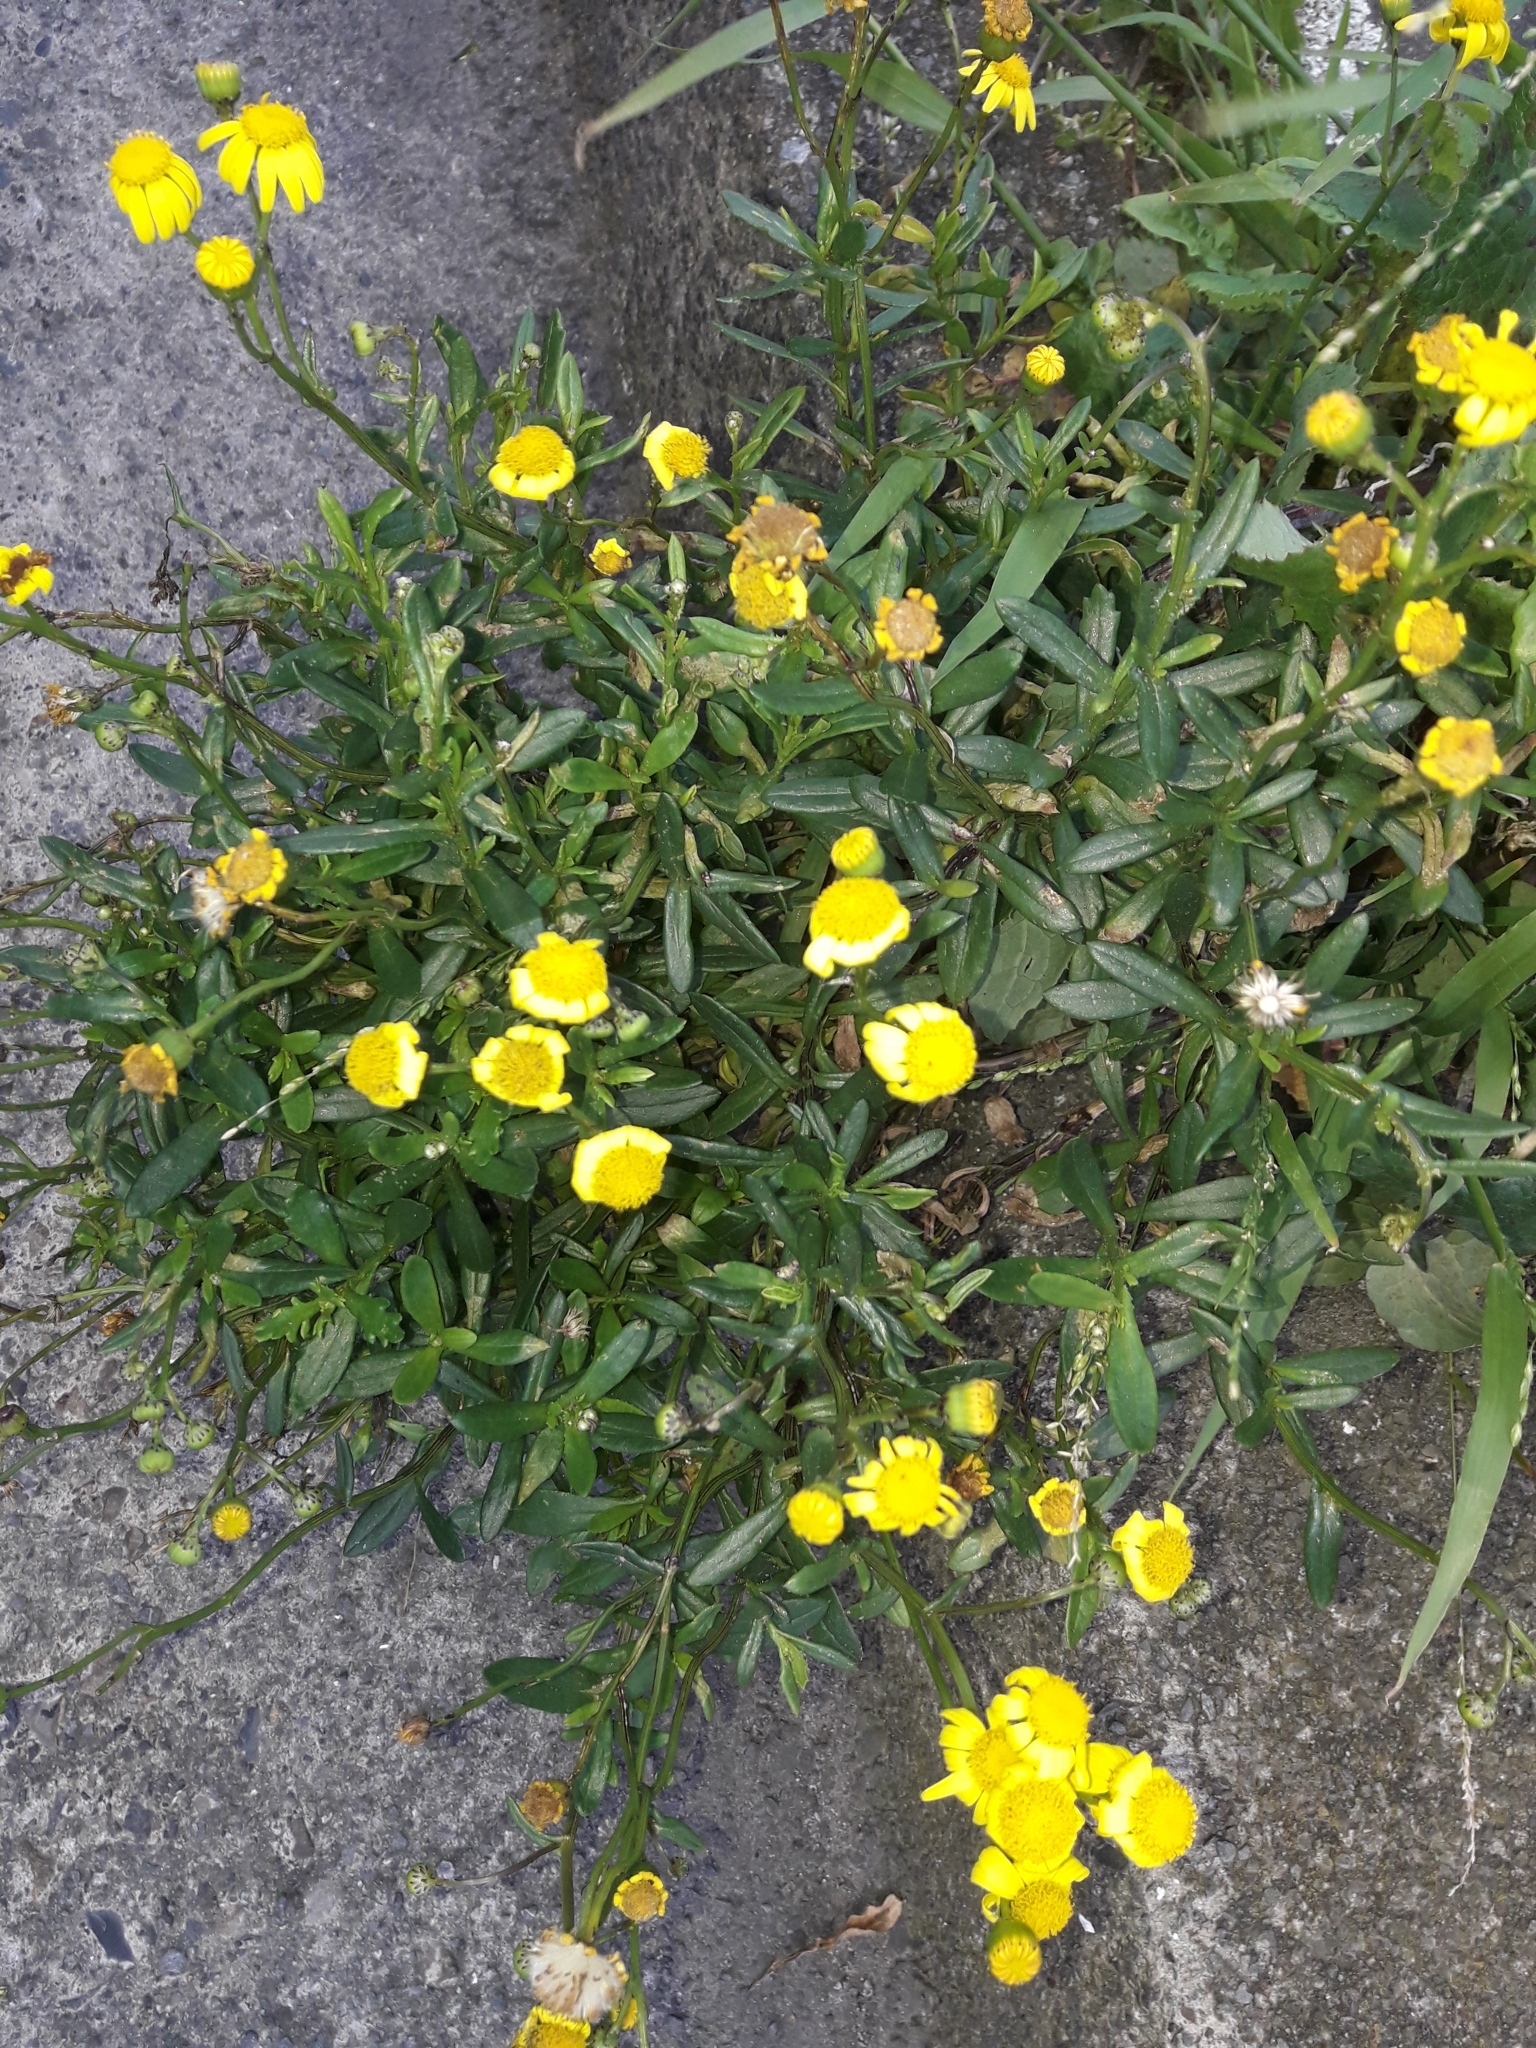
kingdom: Plantae
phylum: Tracheophyta
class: Magnoliopsida
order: Asterales
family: Asteraceae
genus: Senecio
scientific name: Senecio skirrhodon
